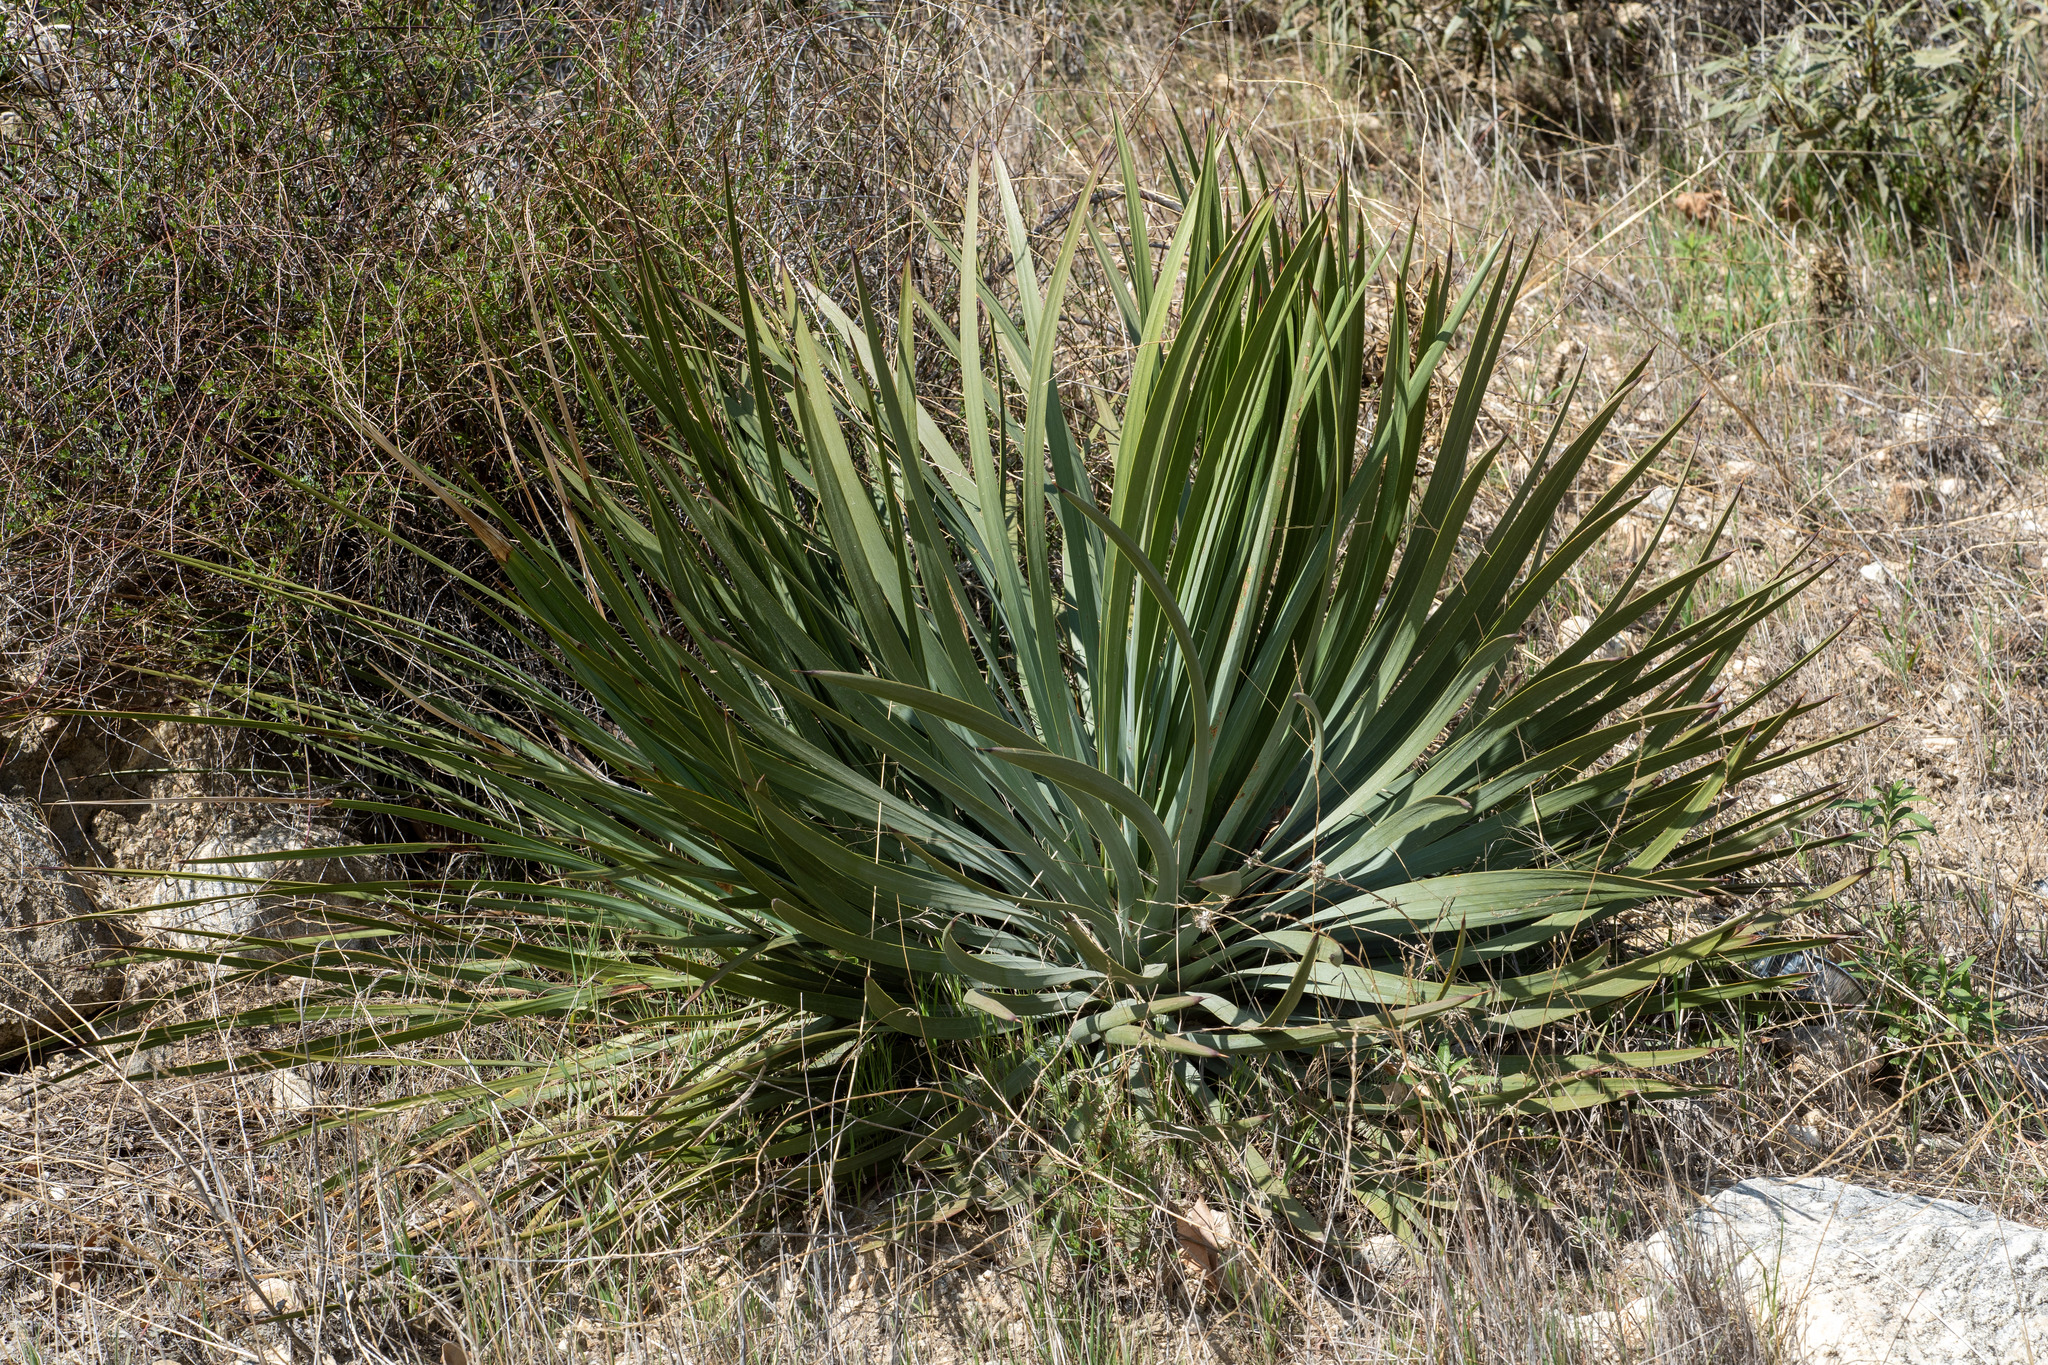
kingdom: Plantae
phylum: Tracheophyta
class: Liliopsida
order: Asparagales
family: Asparagaceae
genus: Hesperoyucca
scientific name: Hesperoyucca whipplei
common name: Our lord's-candle
